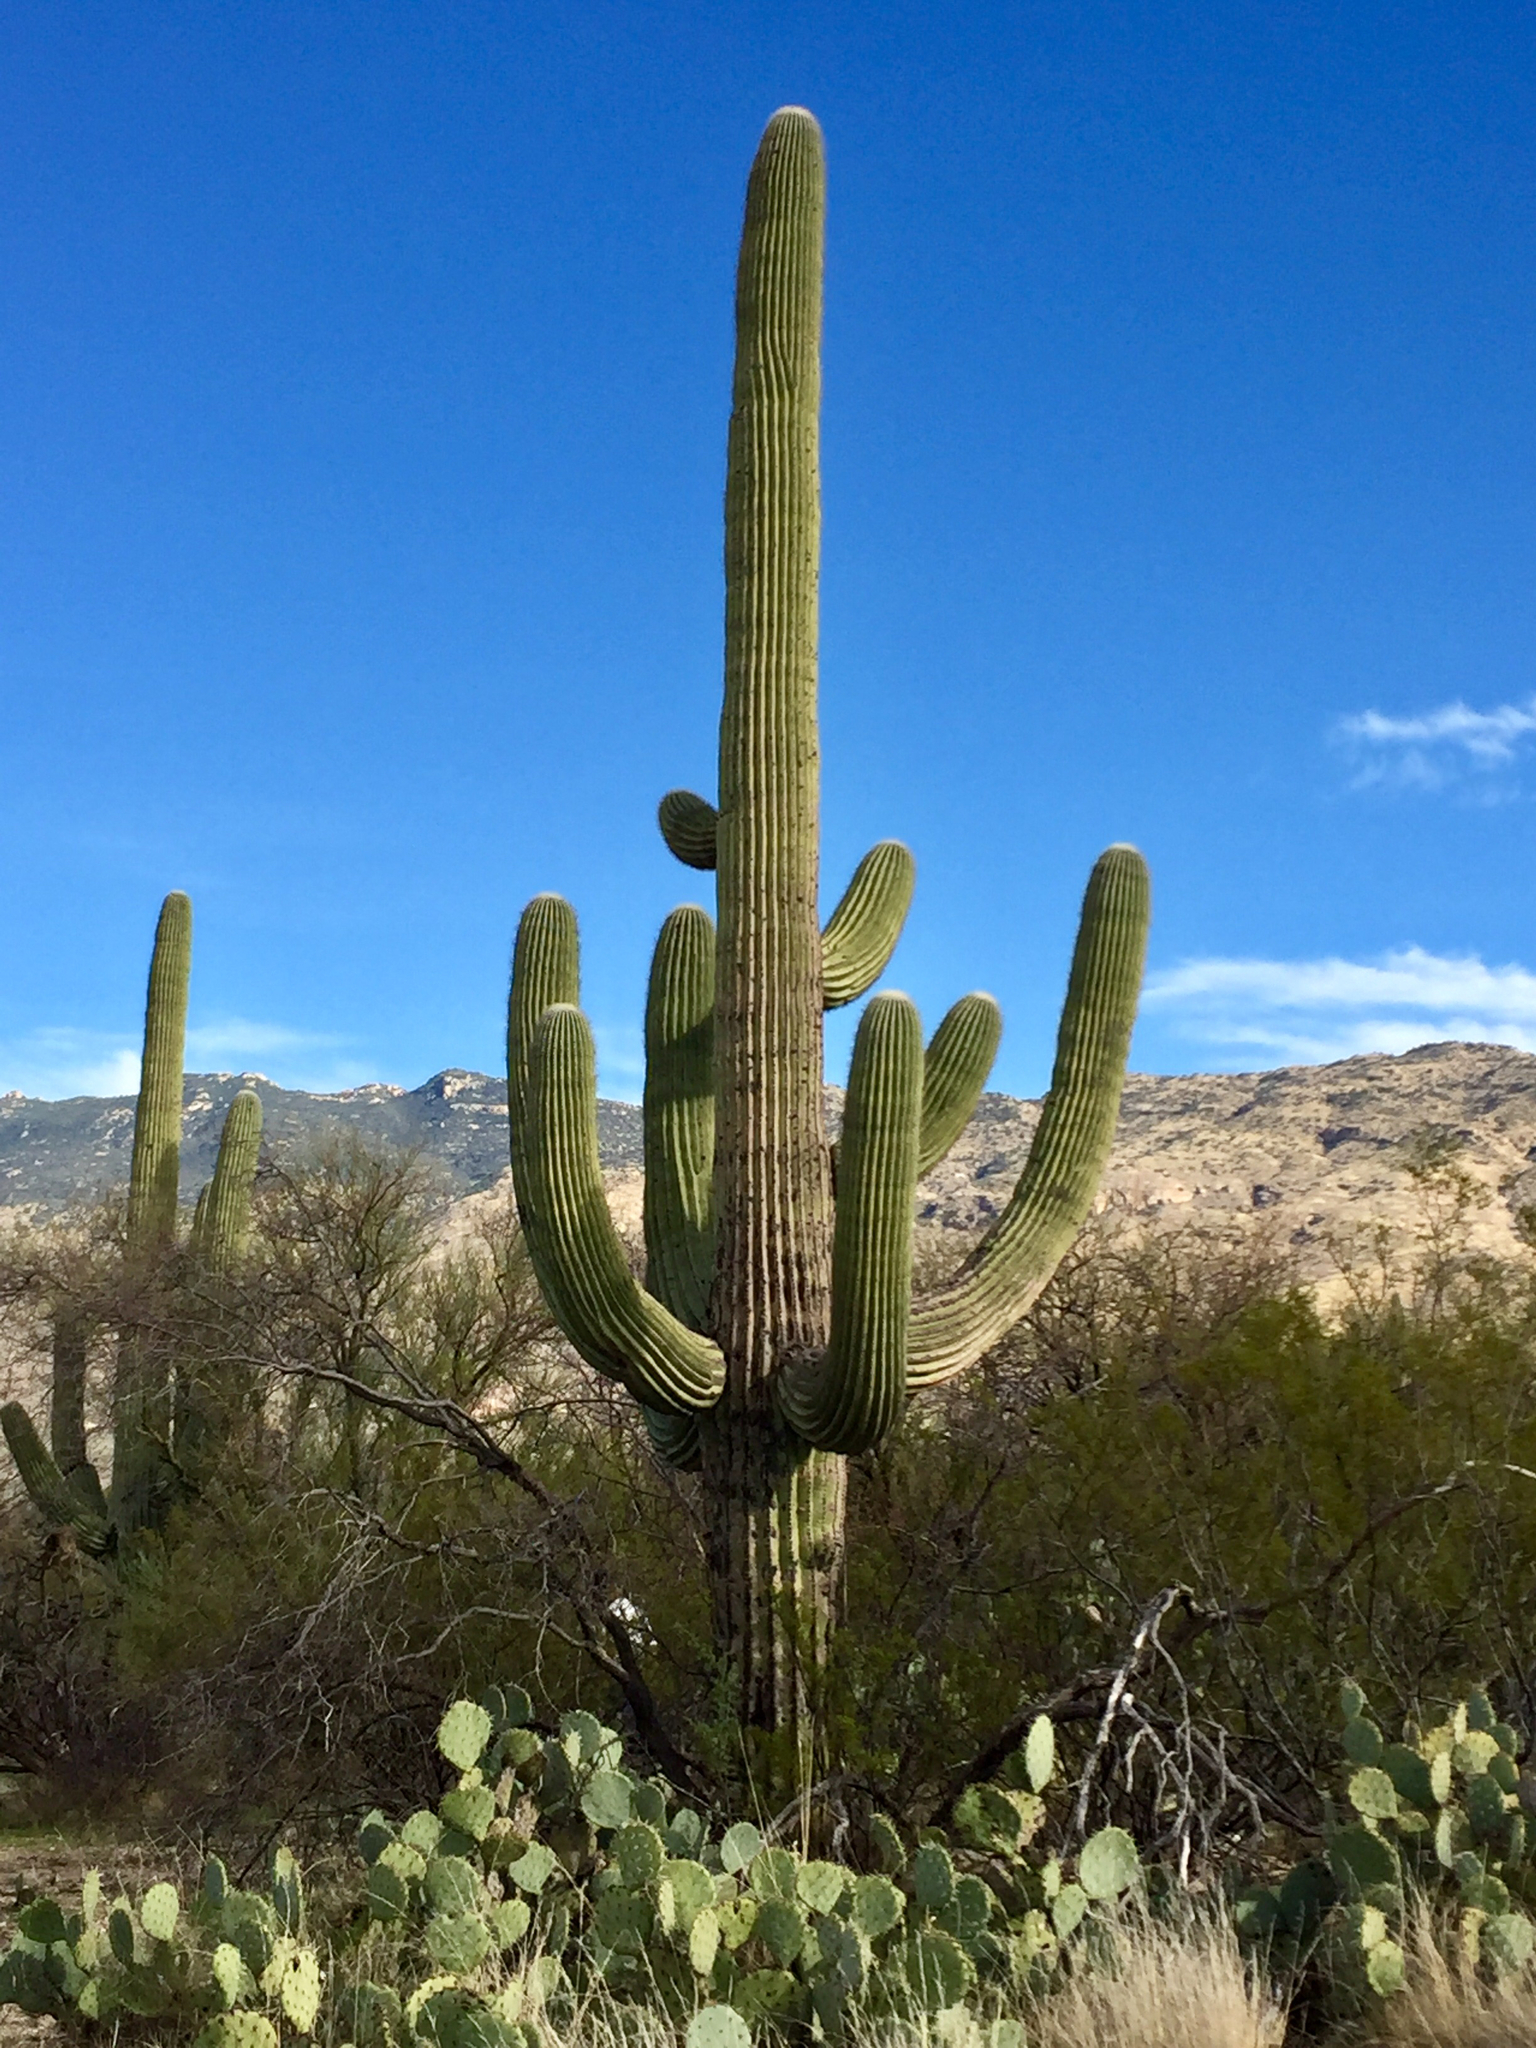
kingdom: Plantae
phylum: Tracheophyta
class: Magnoliopsida
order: Caryophyllales
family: Cactaceae
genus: Carnegiea
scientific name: Carnegiea gigantea
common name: Saguaro
